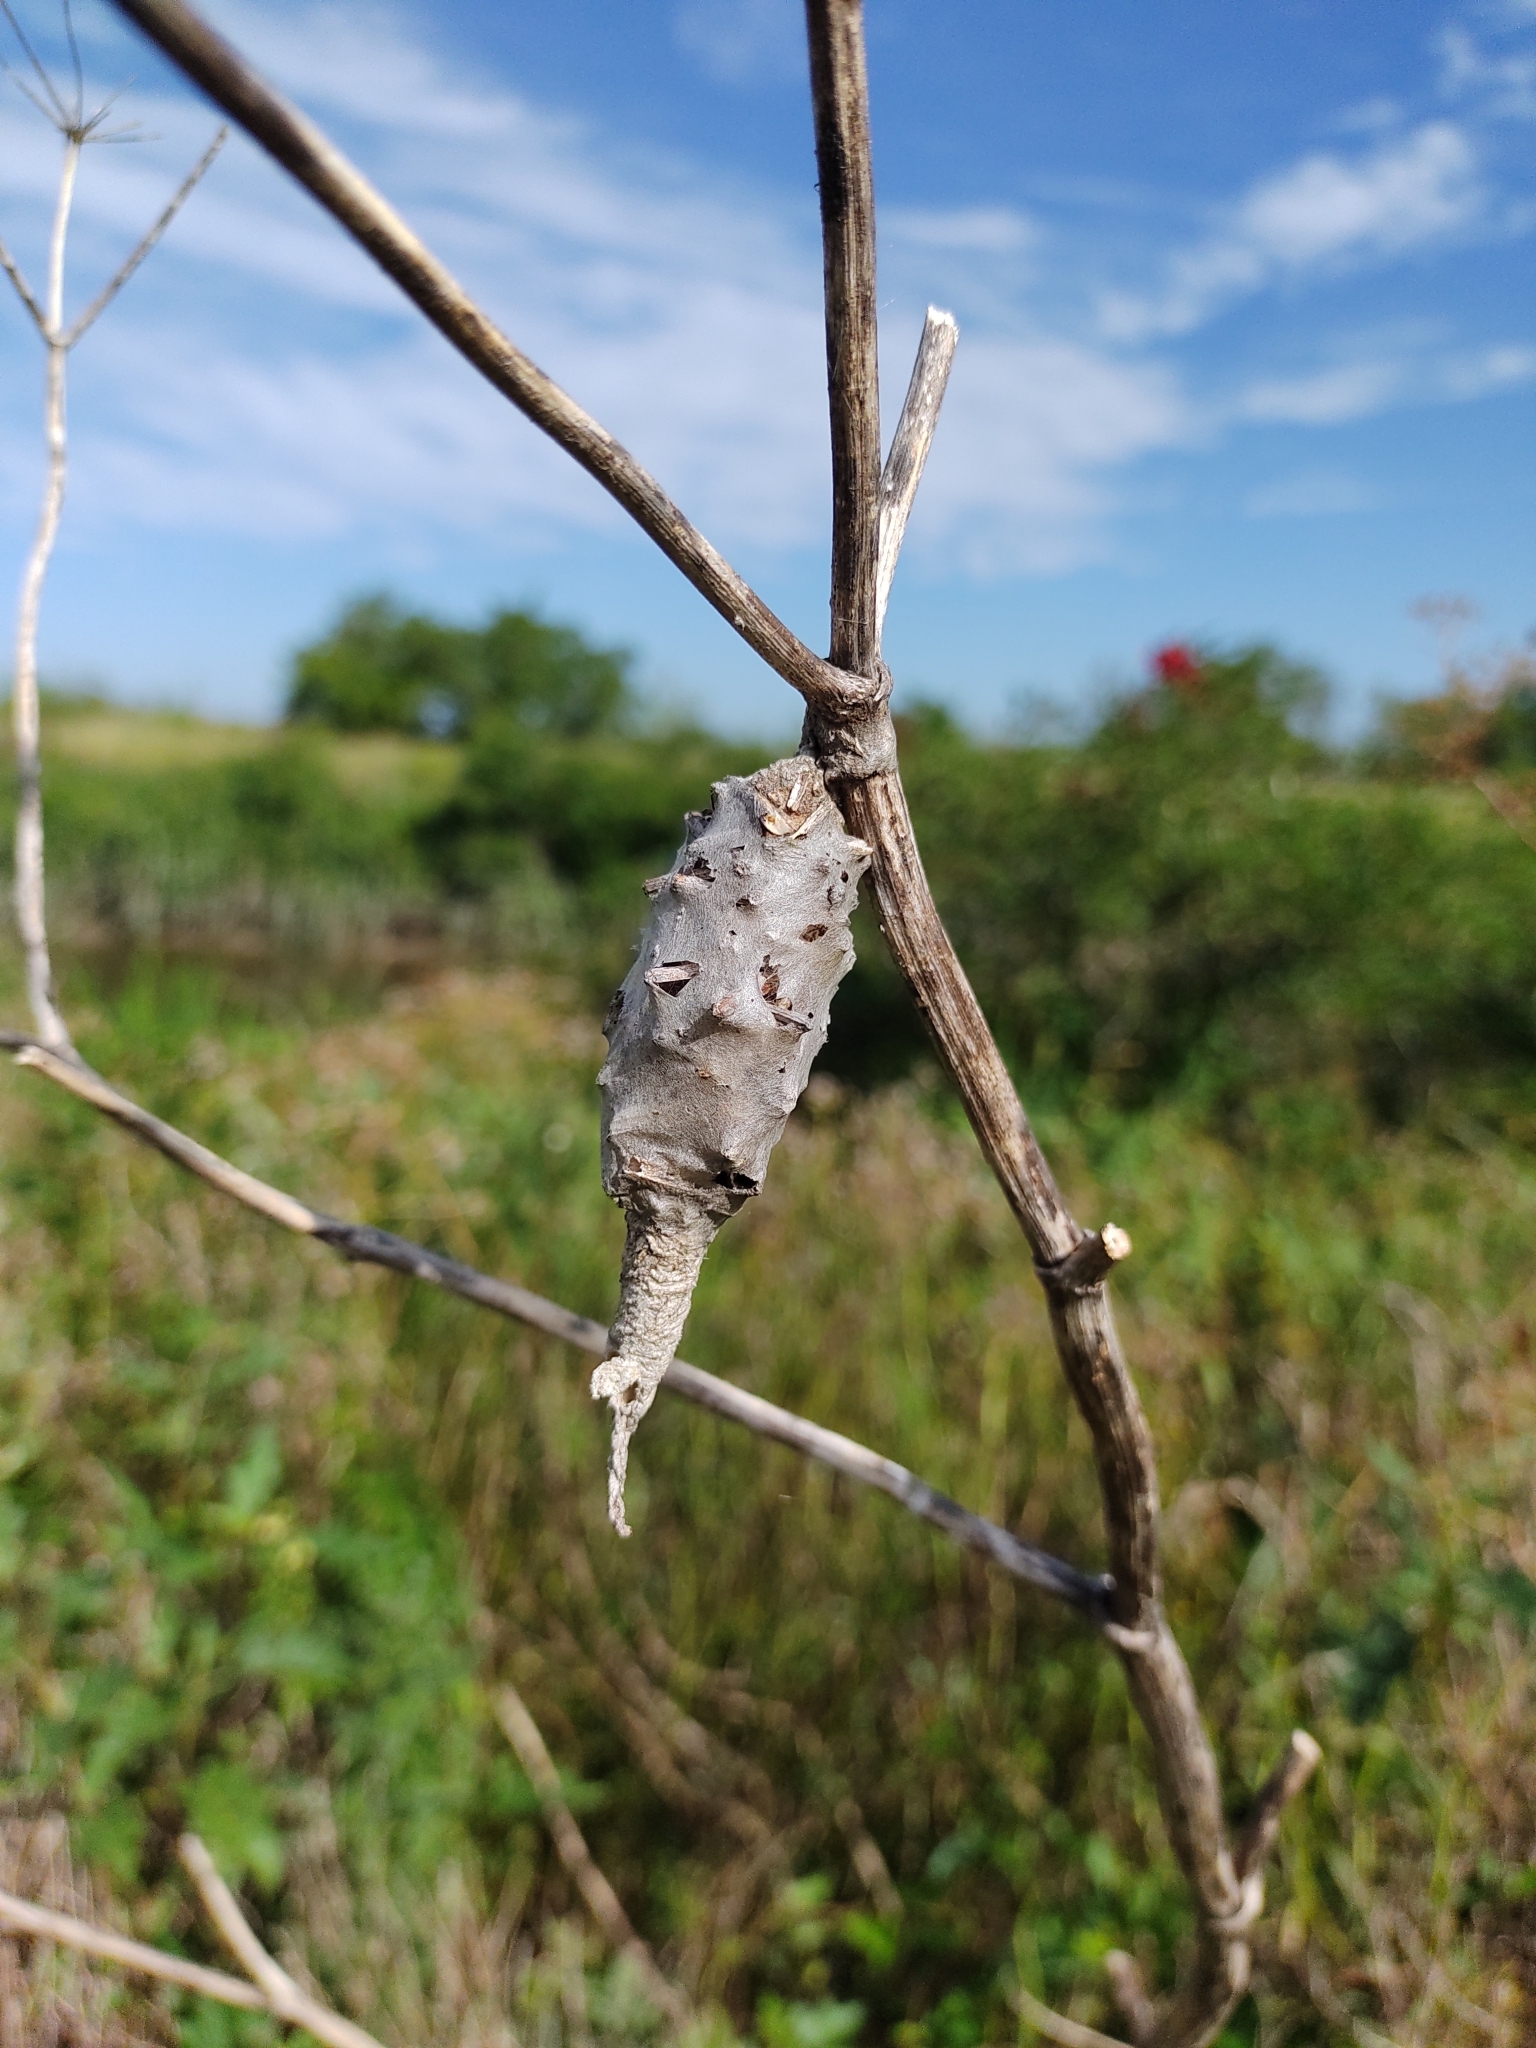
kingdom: Animalia
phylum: Arthropoda
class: Insecta
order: Lepidoptera
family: Psychidae
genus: Oiketicus
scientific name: Oiketicus
